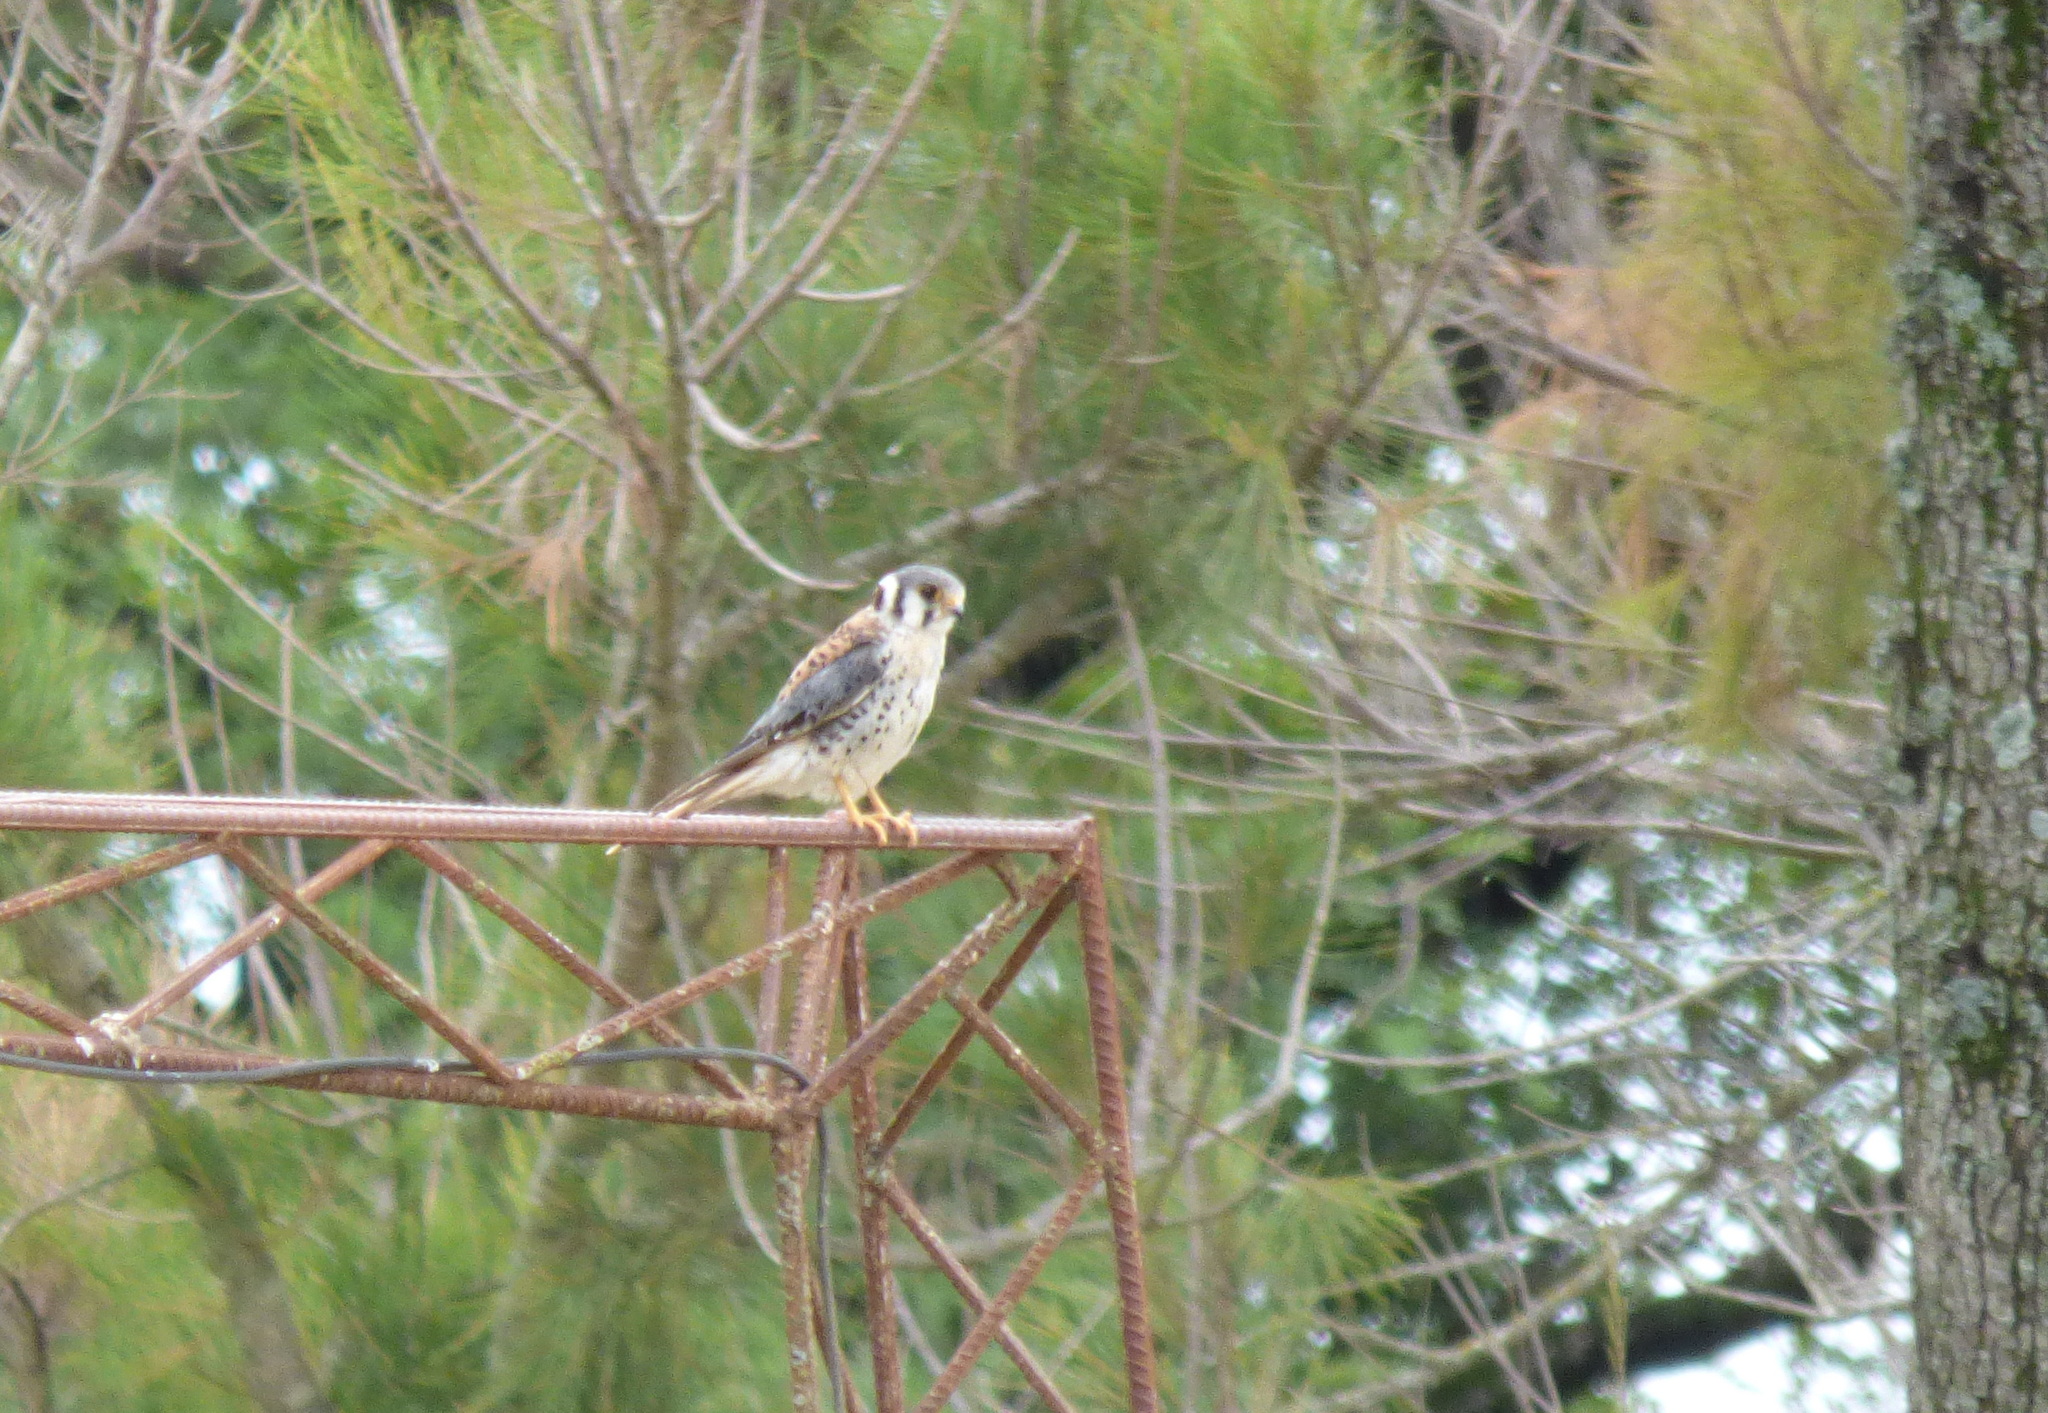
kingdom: Animalia
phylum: Chordata
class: Aves
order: Falconiformes
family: Falconidae
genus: Falco
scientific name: Falco sparverius
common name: American kestrel
